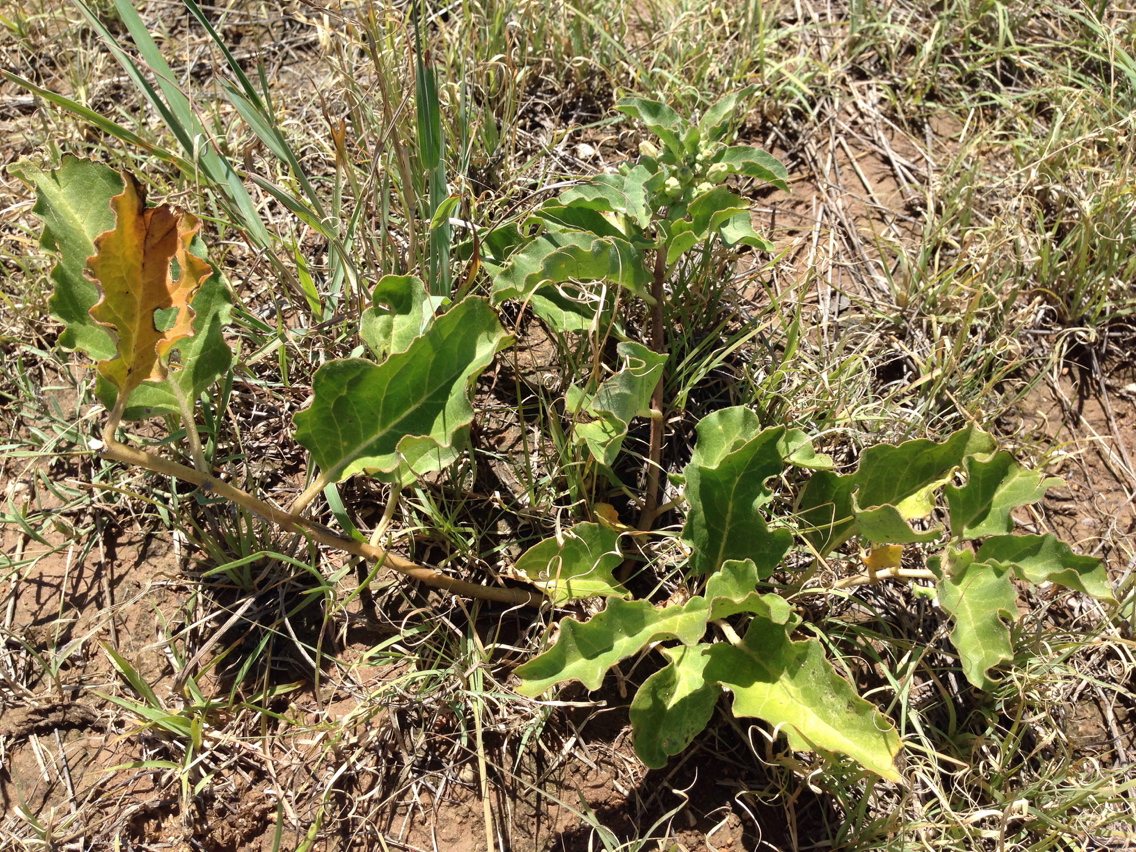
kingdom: Plantae
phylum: Tracheophyta
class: Magnoliopsida
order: Gentianales
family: Apocynaceae
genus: Asclepias
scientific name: Asclepias oenotheroides
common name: Zizotes milkweed
